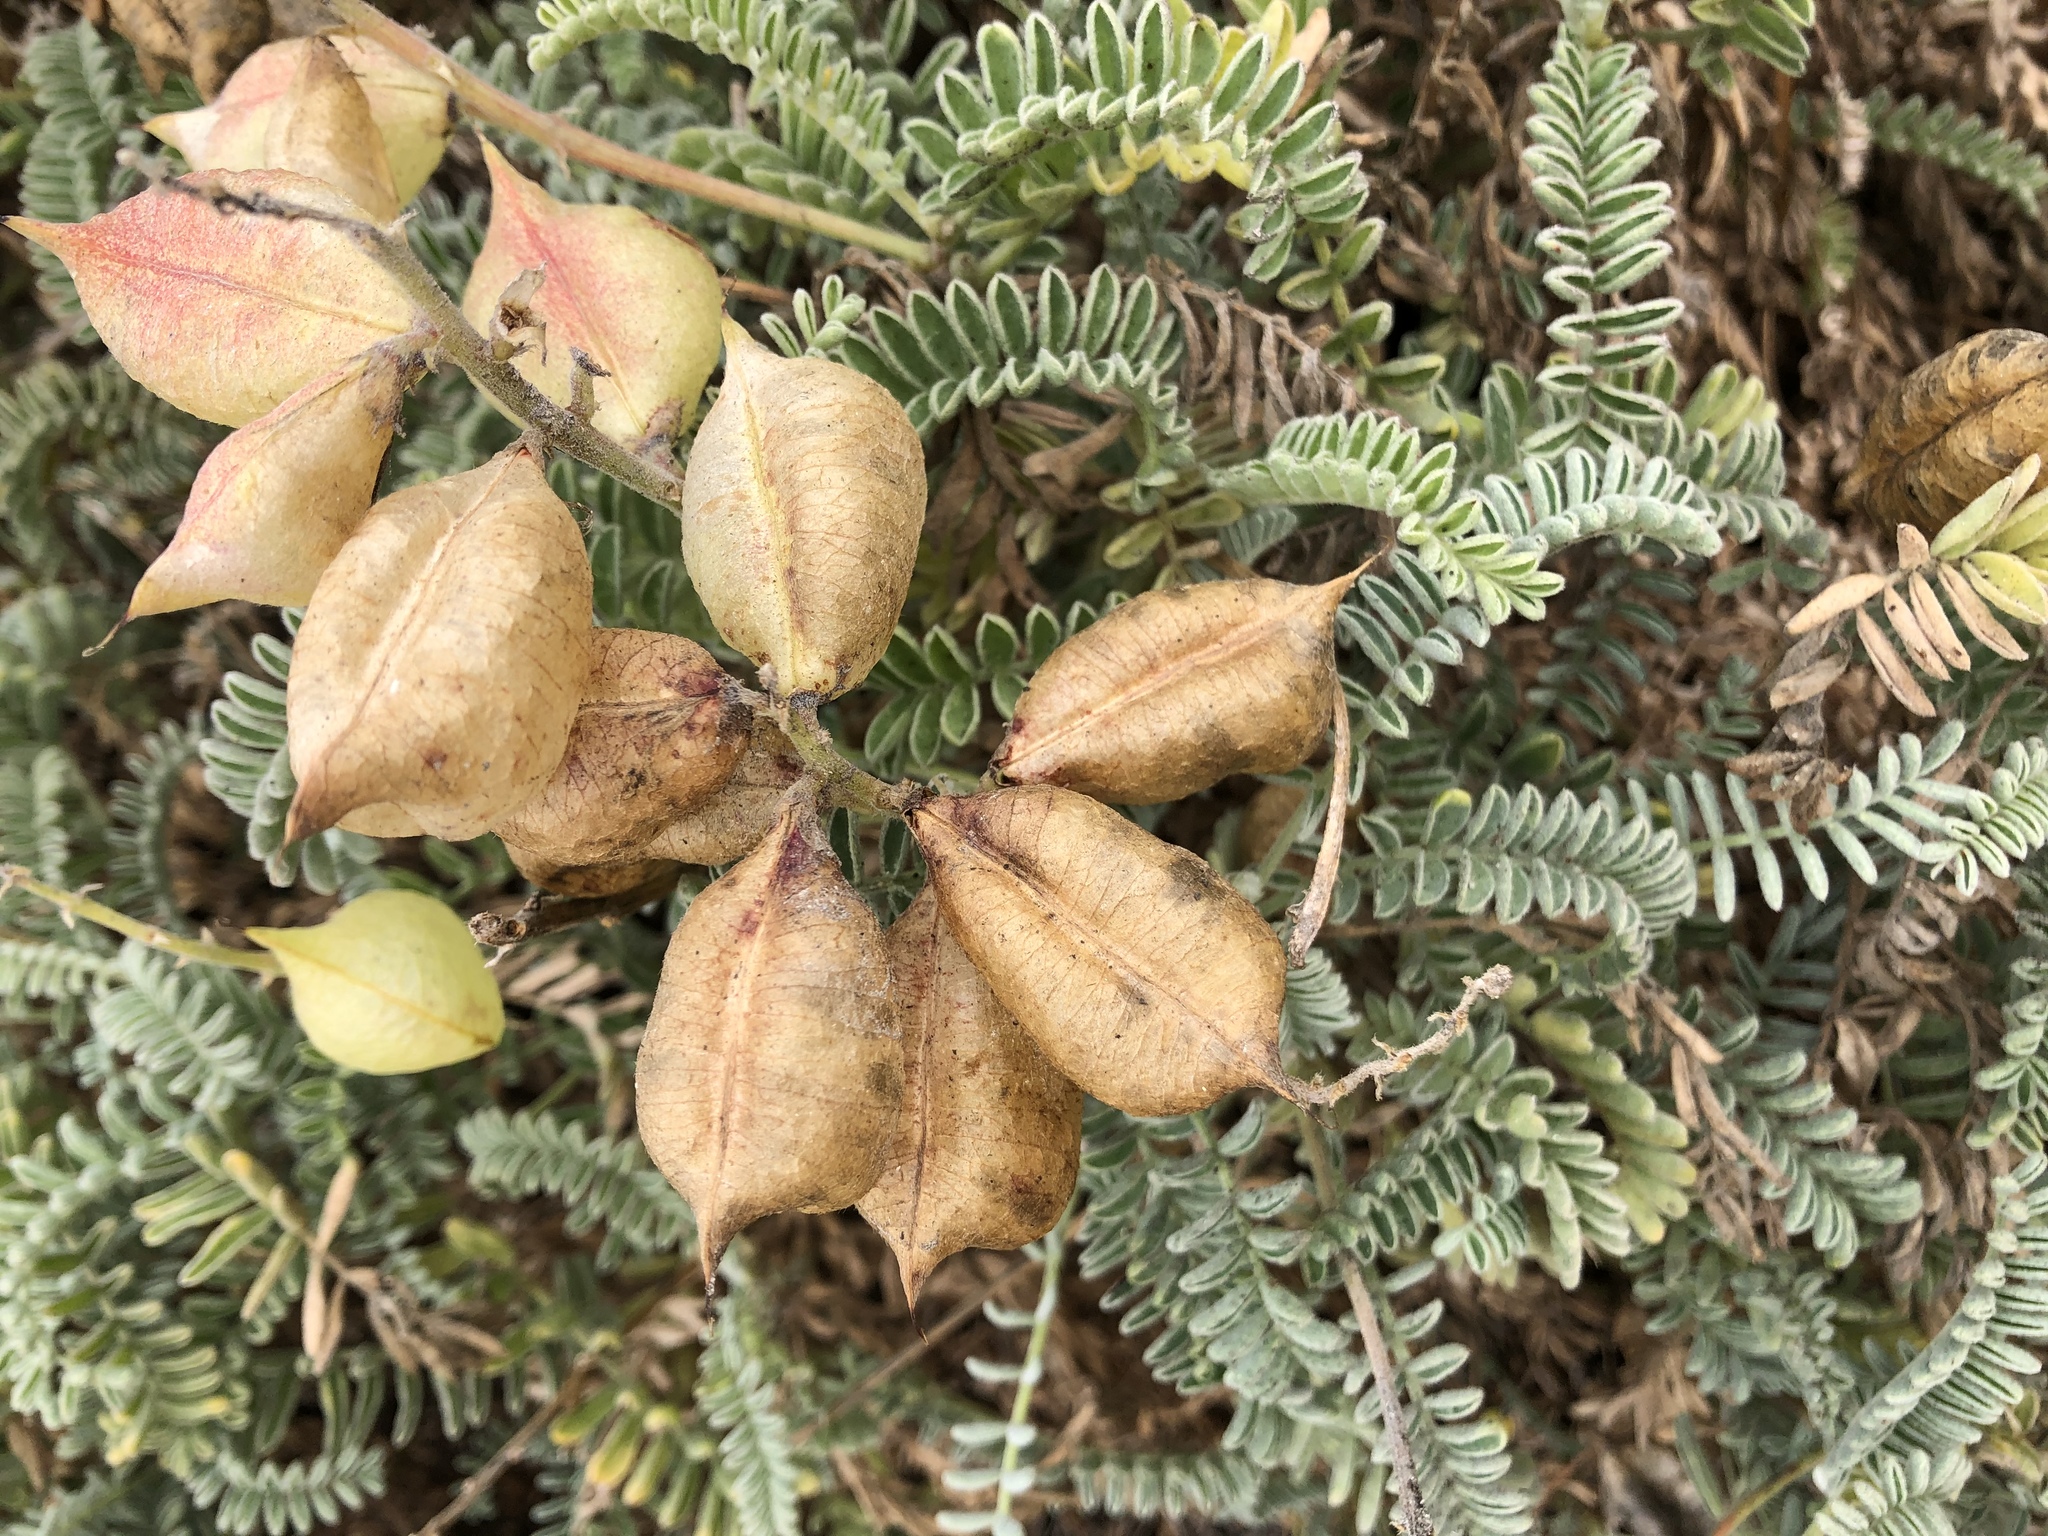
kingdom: Plantae
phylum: Tracheophyta
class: Magnoliopsida
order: Fabales
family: Fabaceae
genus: Astragalus
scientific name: Astragalus nuttallii
